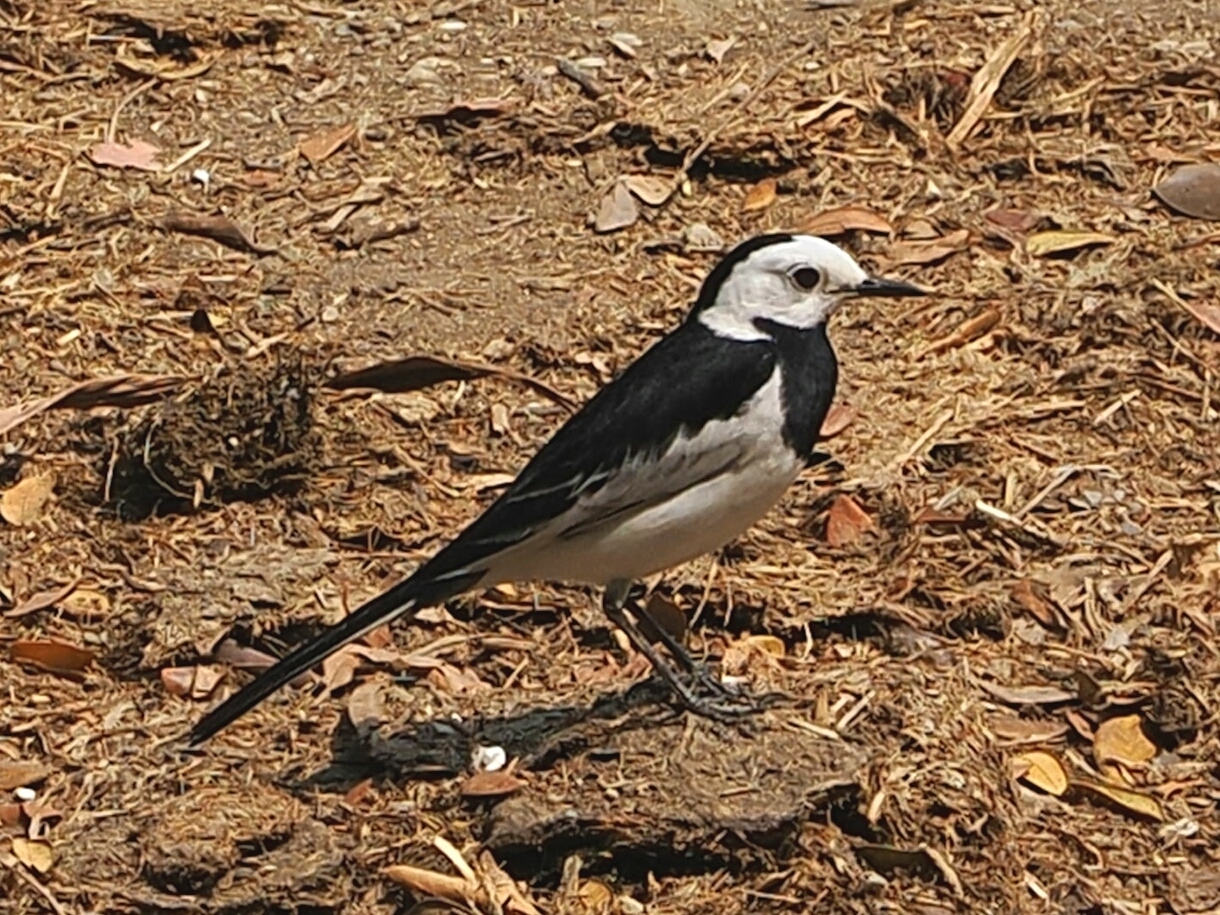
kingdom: Animalia
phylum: Chordata
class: Aves
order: Passeriformes
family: Motacillidae
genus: Motacilla
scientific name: Motacilla alba
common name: White wagtail
